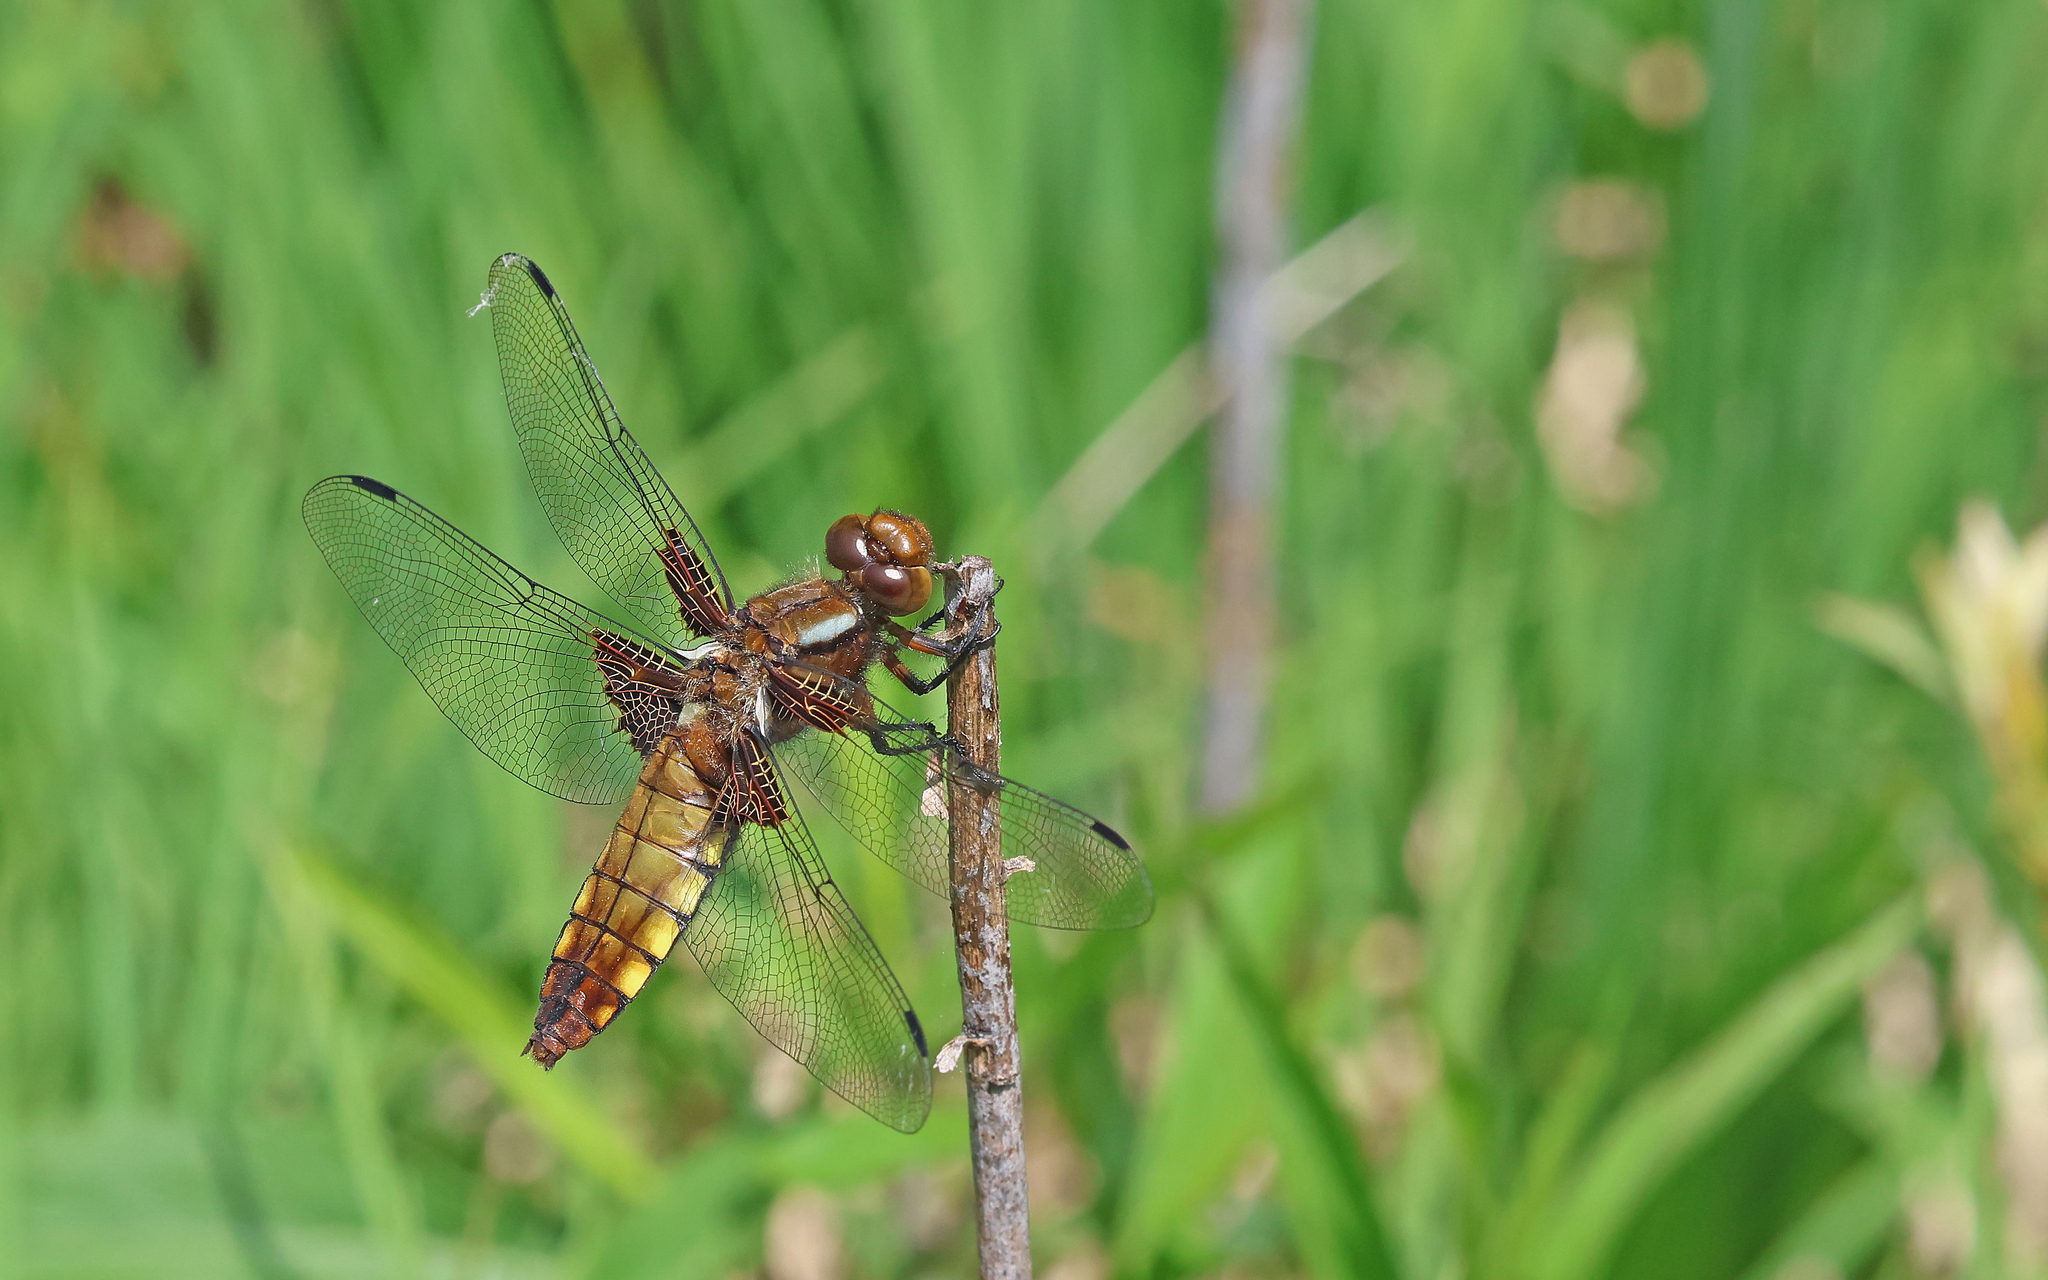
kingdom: Animalia
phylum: Arthropoda
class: Insecta
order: Odonata
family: Libellulidae
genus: Libellula
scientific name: Libellula depressa
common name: Broad-bodied chaser
